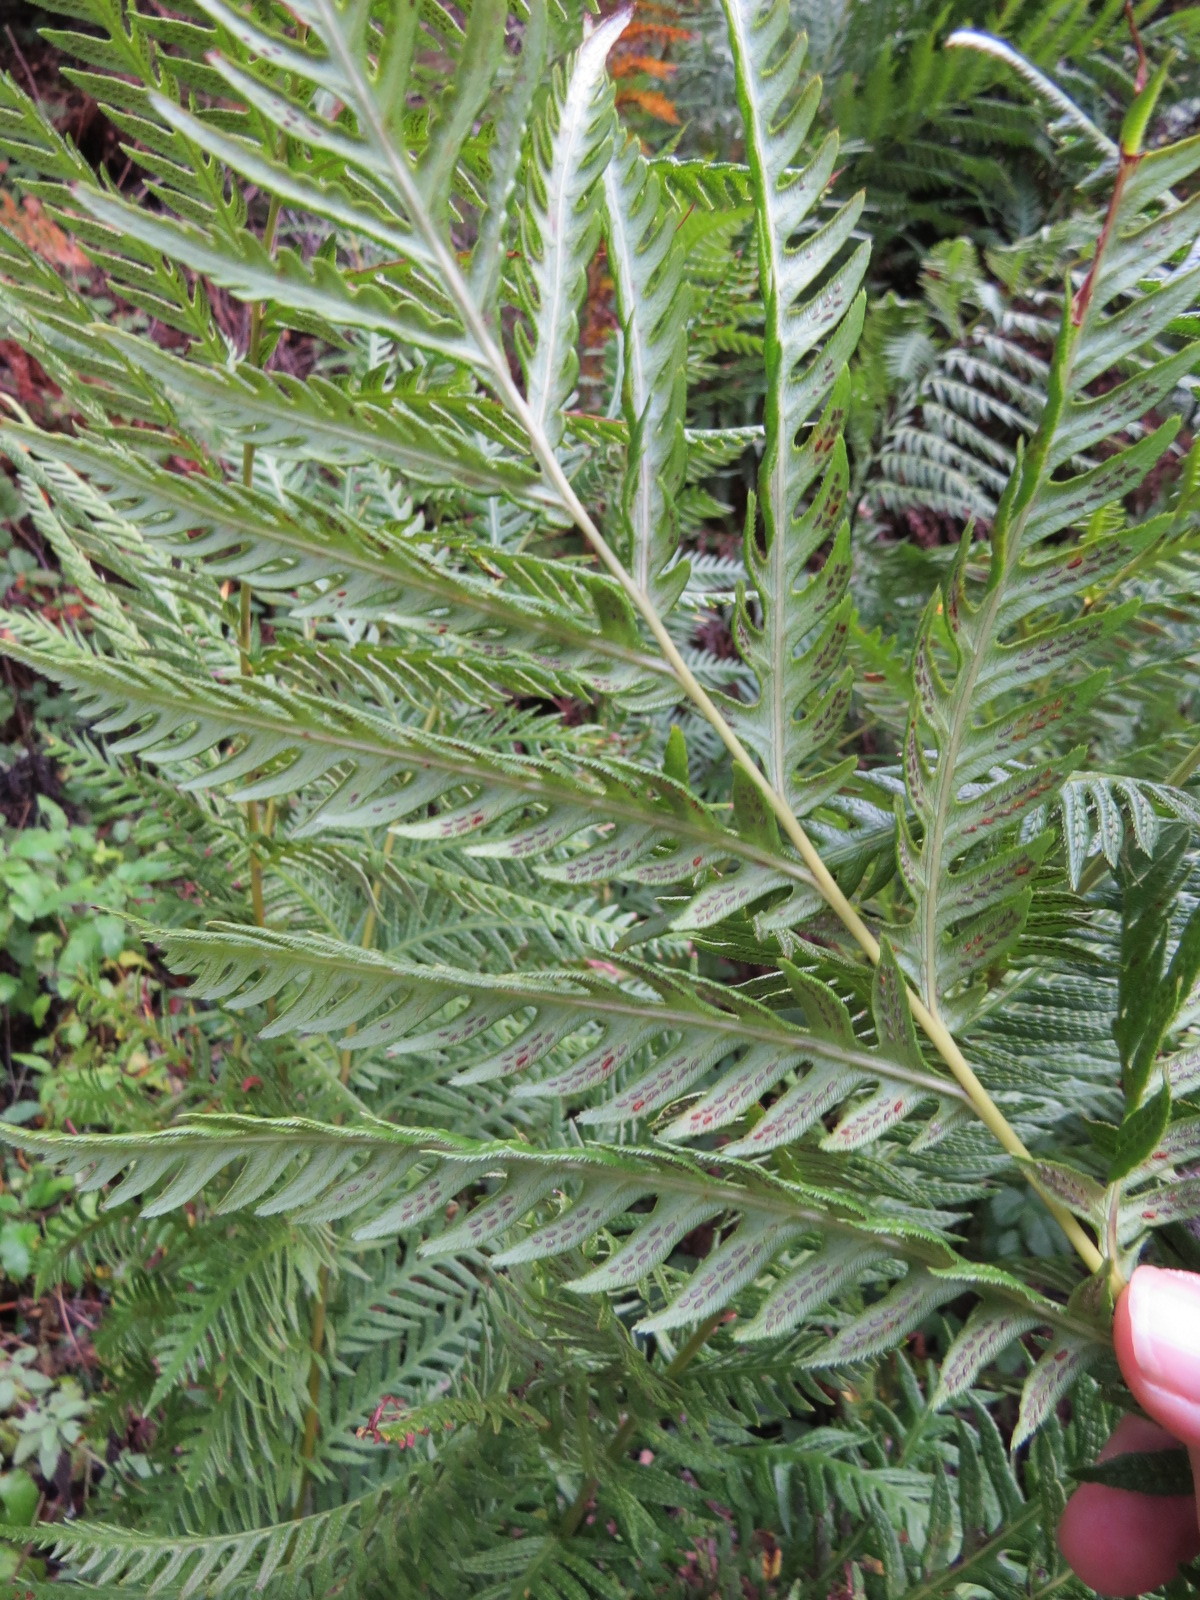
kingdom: Plantae
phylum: Tracheophyta
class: Polypodiopsida
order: Polypodiales
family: Blechnaceae
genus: Woodwardia
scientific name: Woodwardia fimbriata
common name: Giant chain fern
